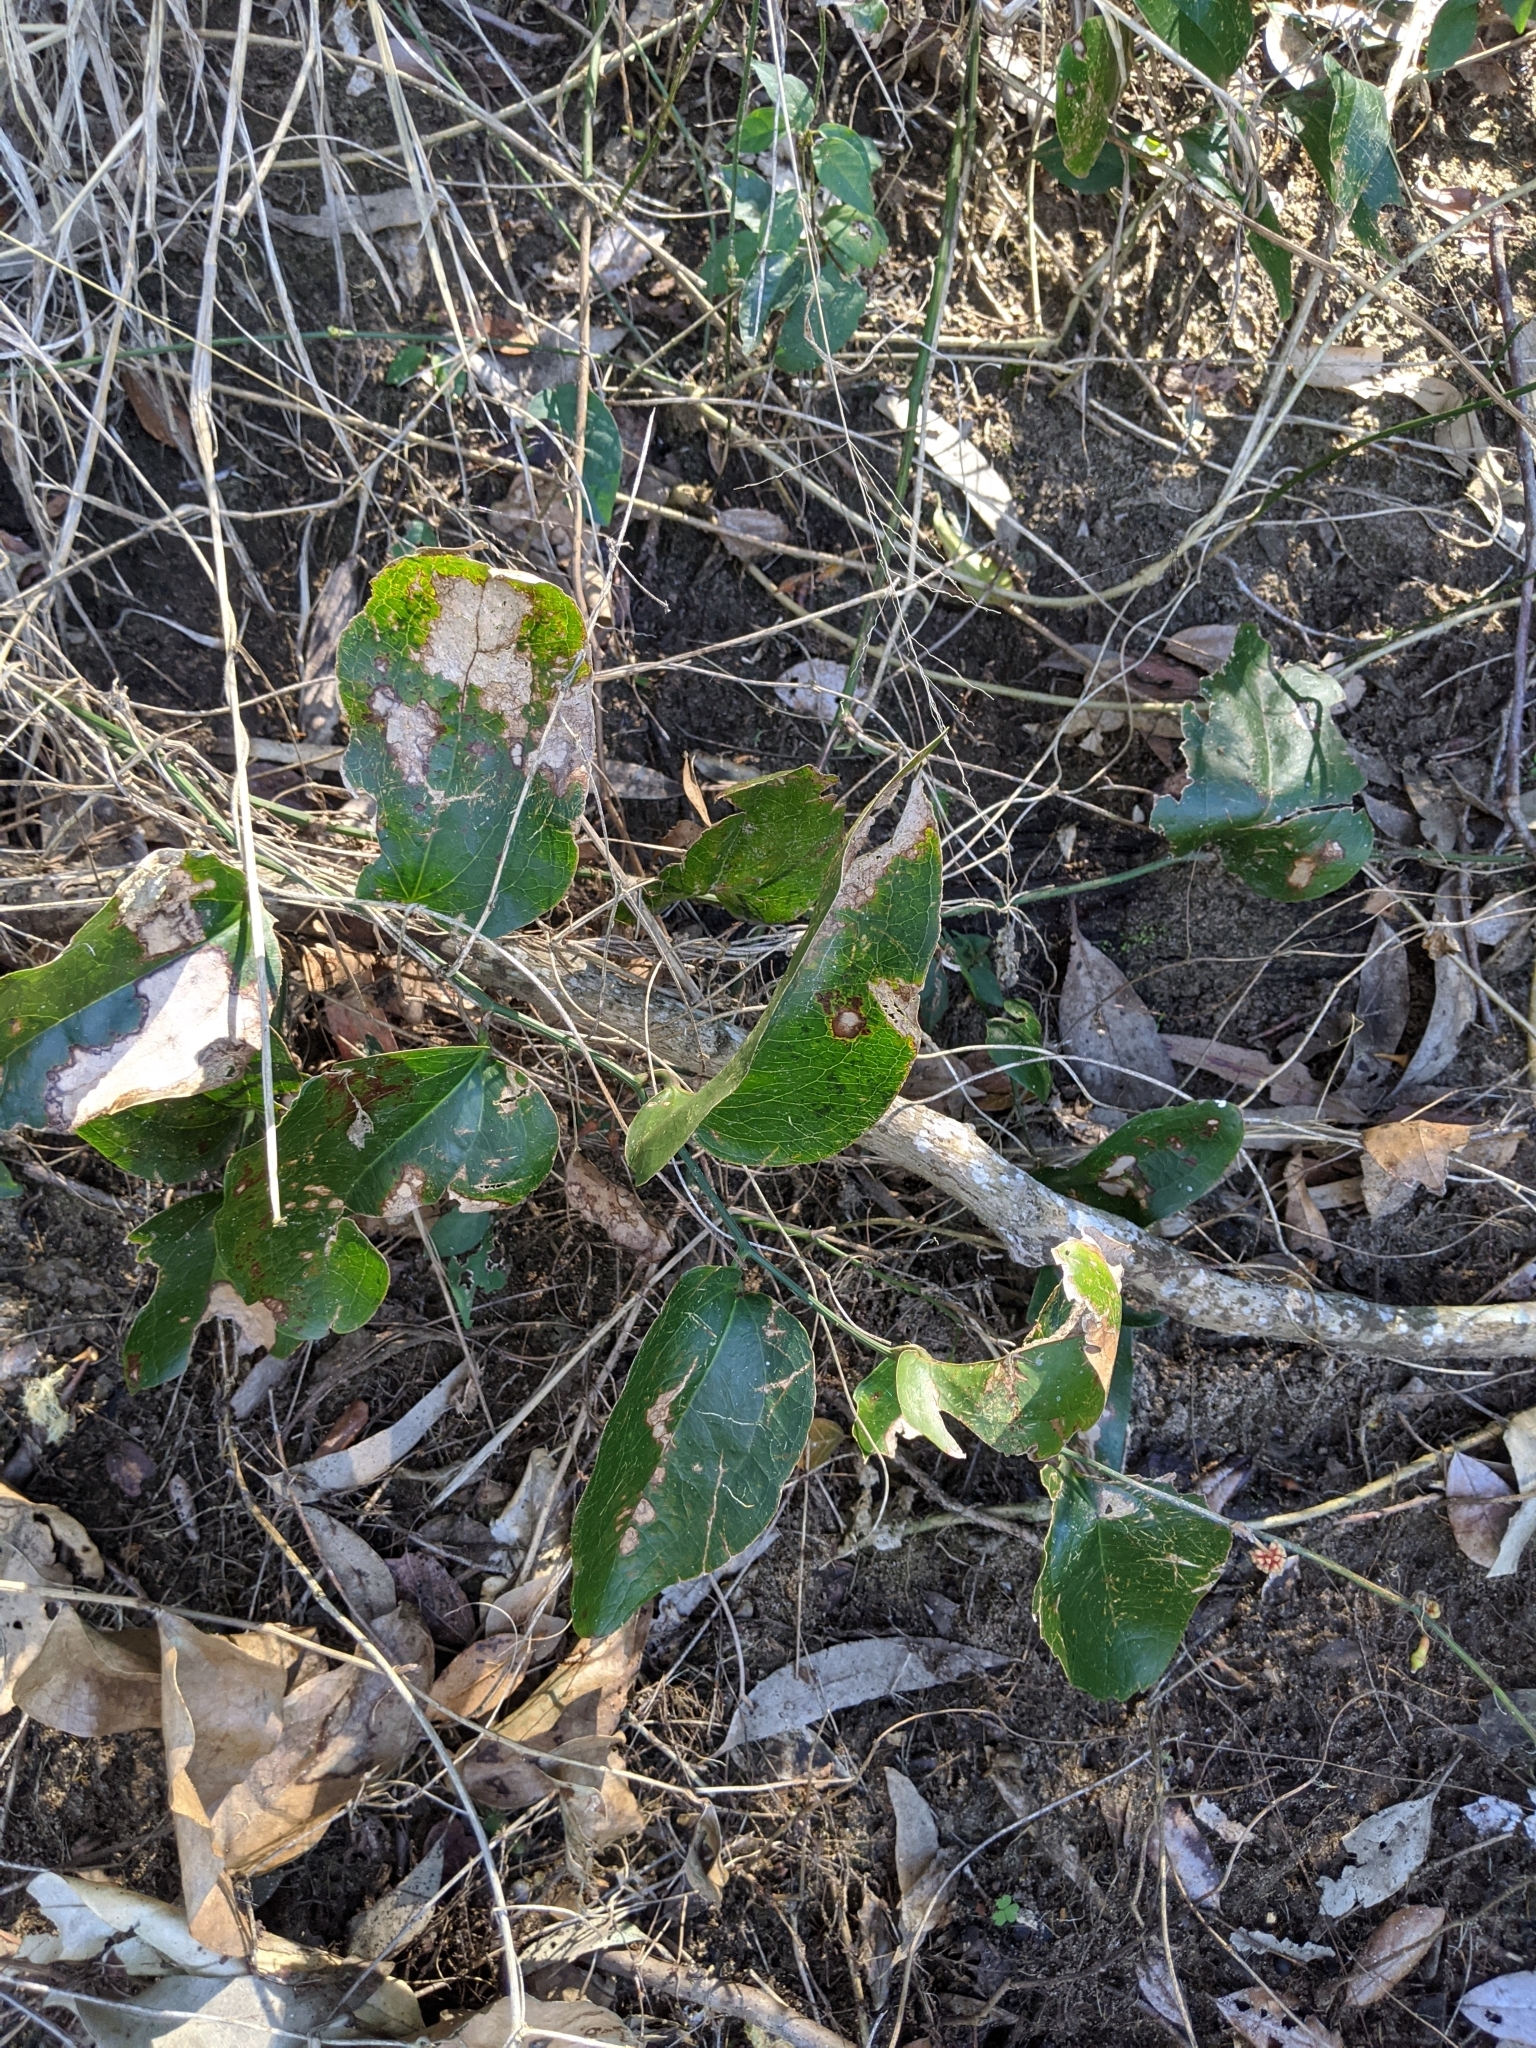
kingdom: Plantae
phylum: Tracheophyta
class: Liliopsida
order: Liliales
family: Smilacaceae
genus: Smilax
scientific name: Smilax australis
